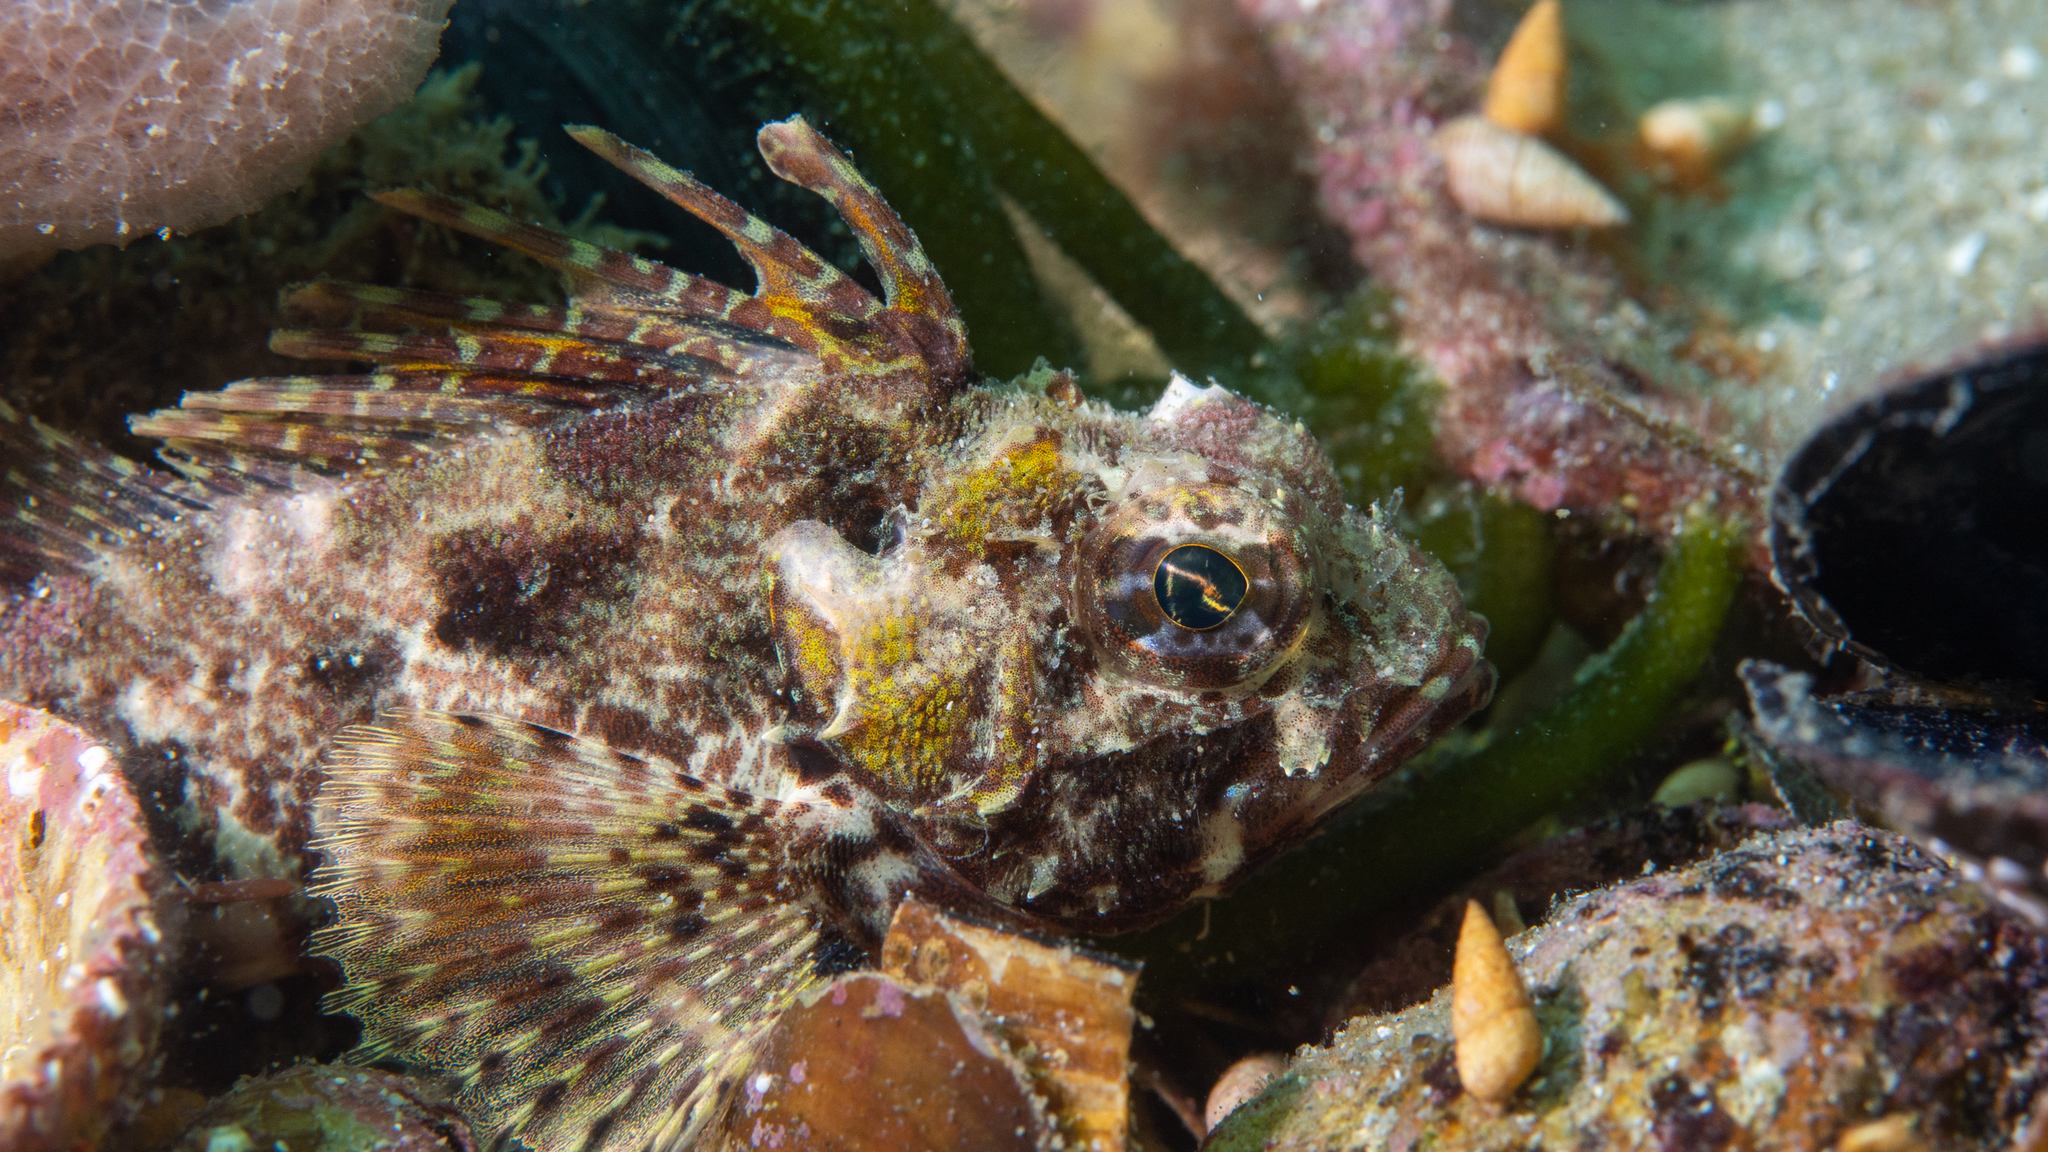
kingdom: Animalia
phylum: Chordata
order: Scorpaeniformes
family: Neosebastidae
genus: Neosebastes
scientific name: Neosebastes scorpaenoides
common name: Cobbler perch
